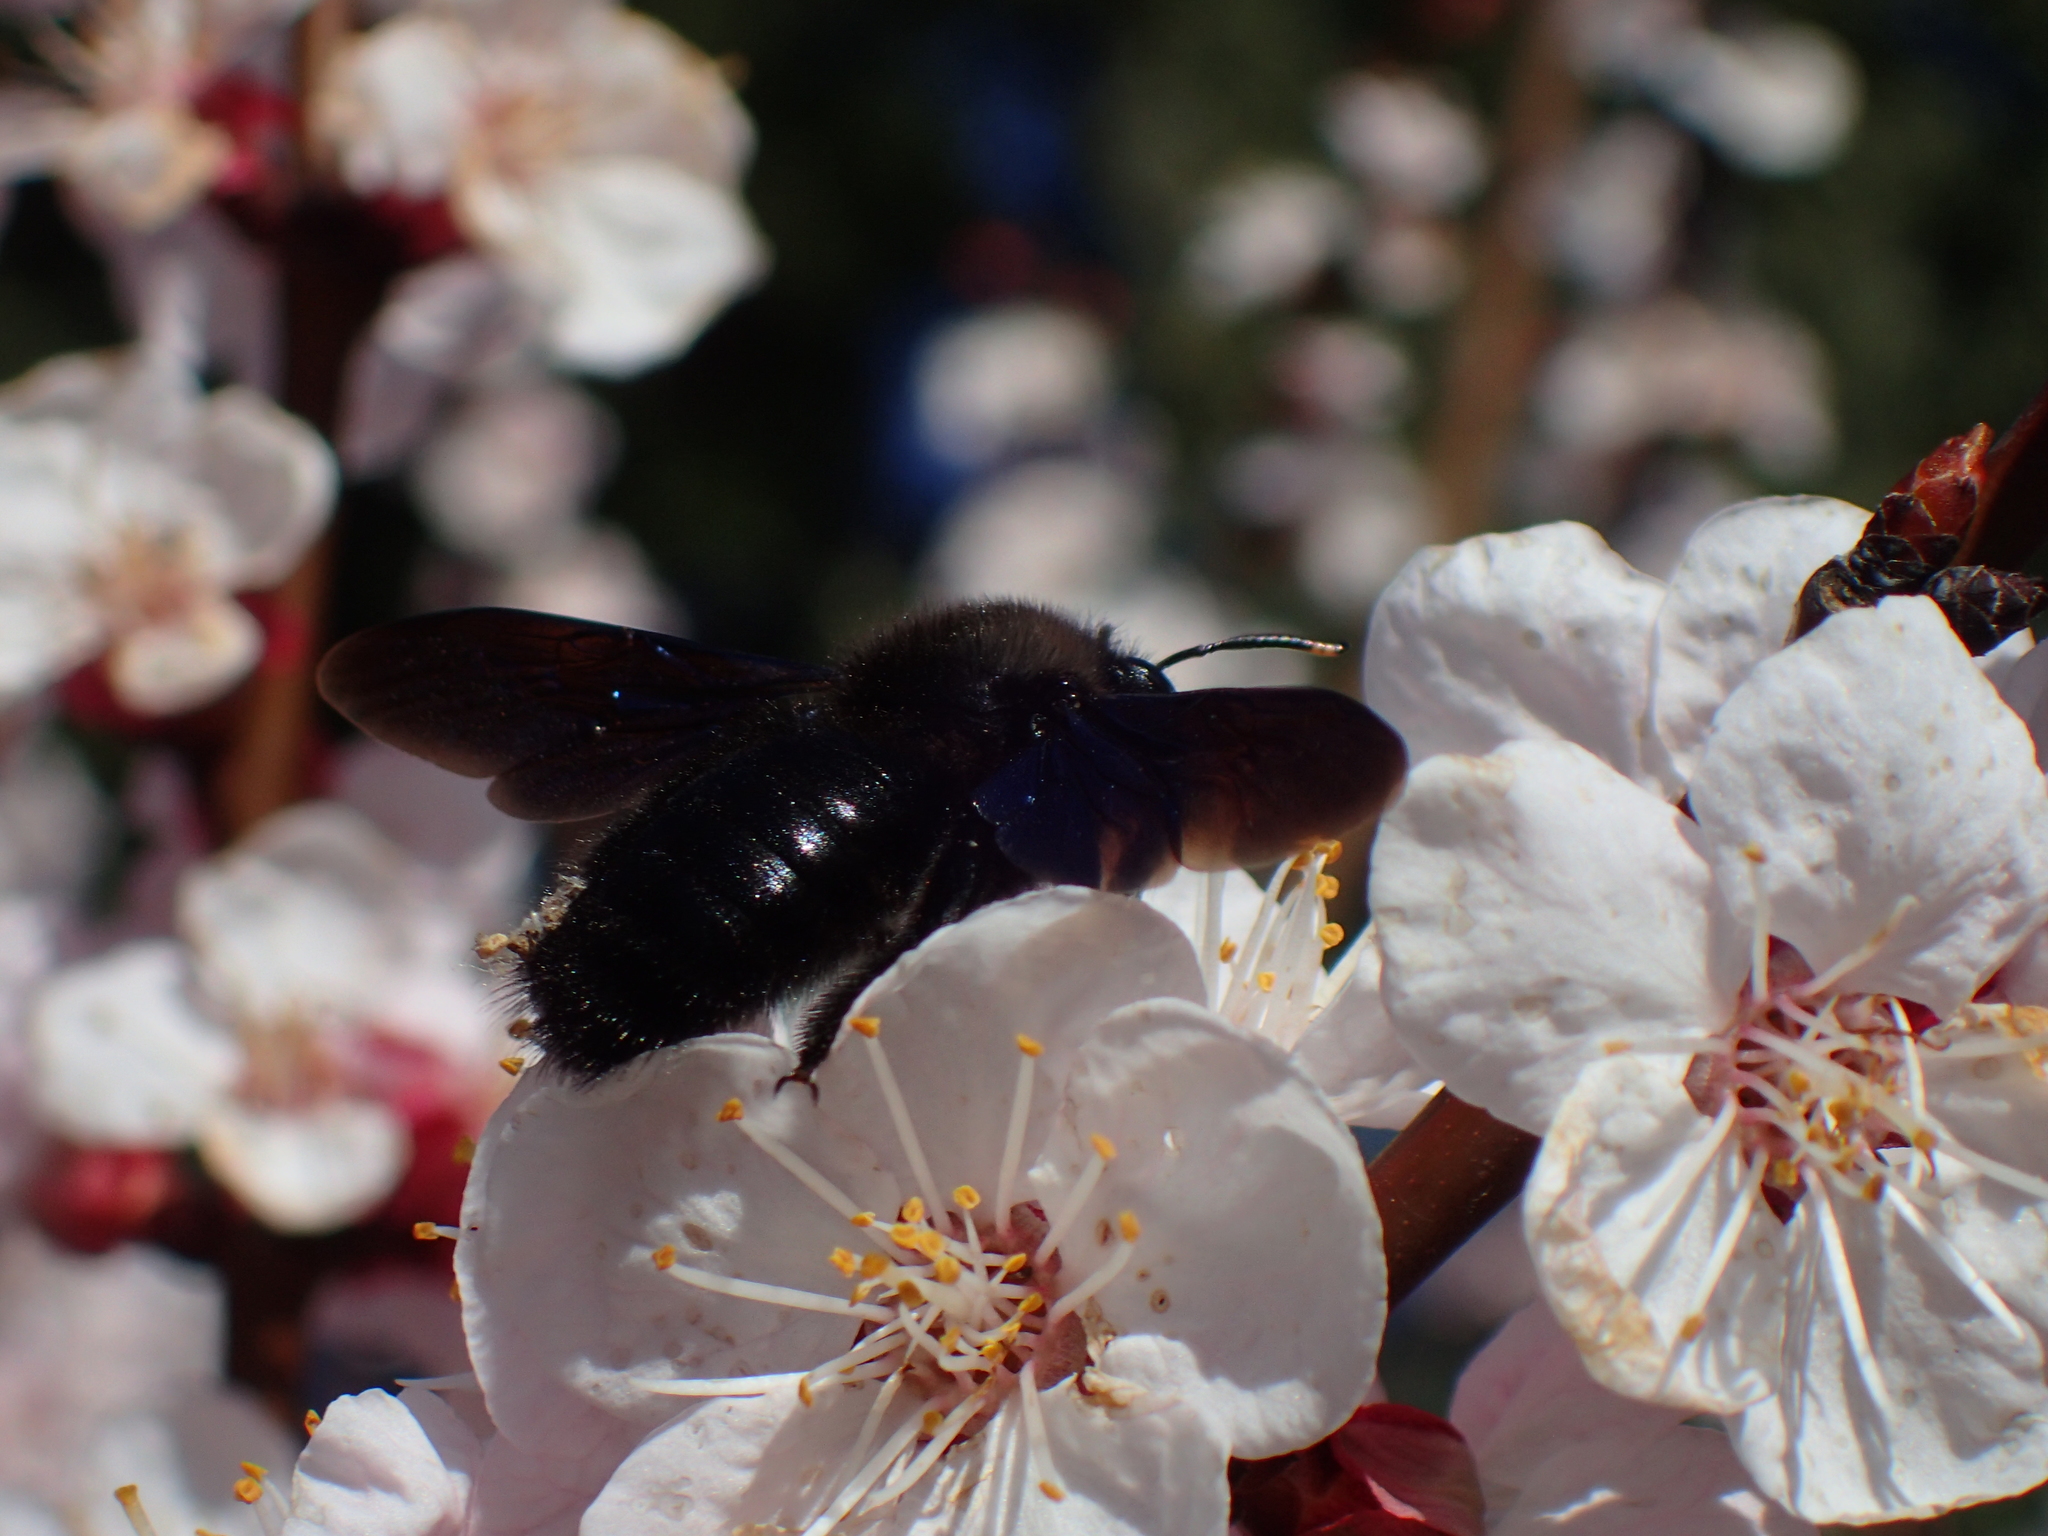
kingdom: Animalia
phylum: Arthropoda
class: Insecta
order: Hymenoptera
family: Apidae
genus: Xylocopa
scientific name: Xylocopa violacea
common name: Violet carpenter bee
